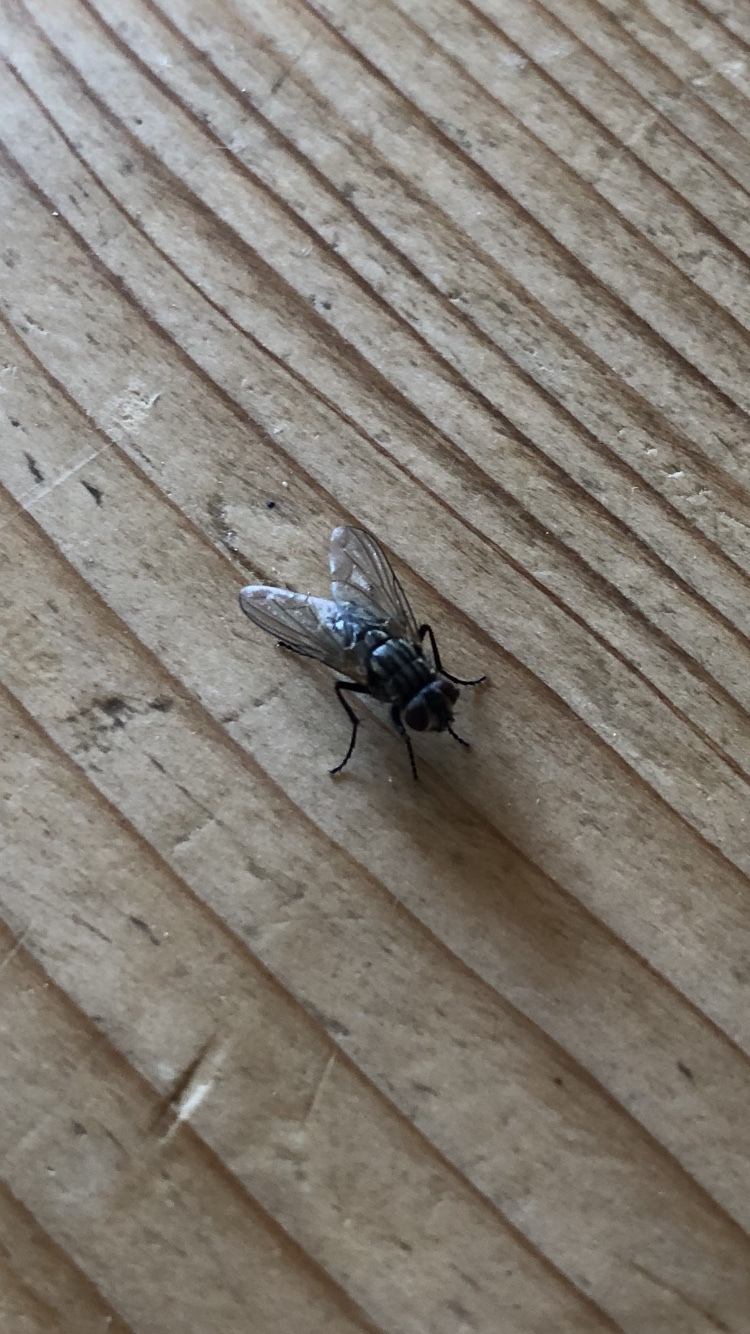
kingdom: Animalia
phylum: Arthropoda
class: Insecta
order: Diptera
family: Muscidae
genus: Musca
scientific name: Musca domestica
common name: House fly
